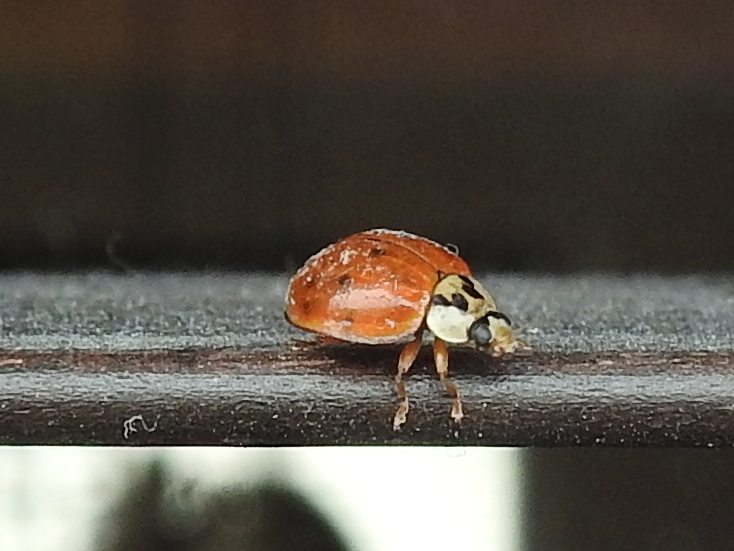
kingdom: Animalia
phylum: Arthropoda
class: Insecta
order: Coleoptera
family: Coccinellidae
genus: Harmonia
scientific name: Harmonia axyridis
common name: Harlequin ladybird
